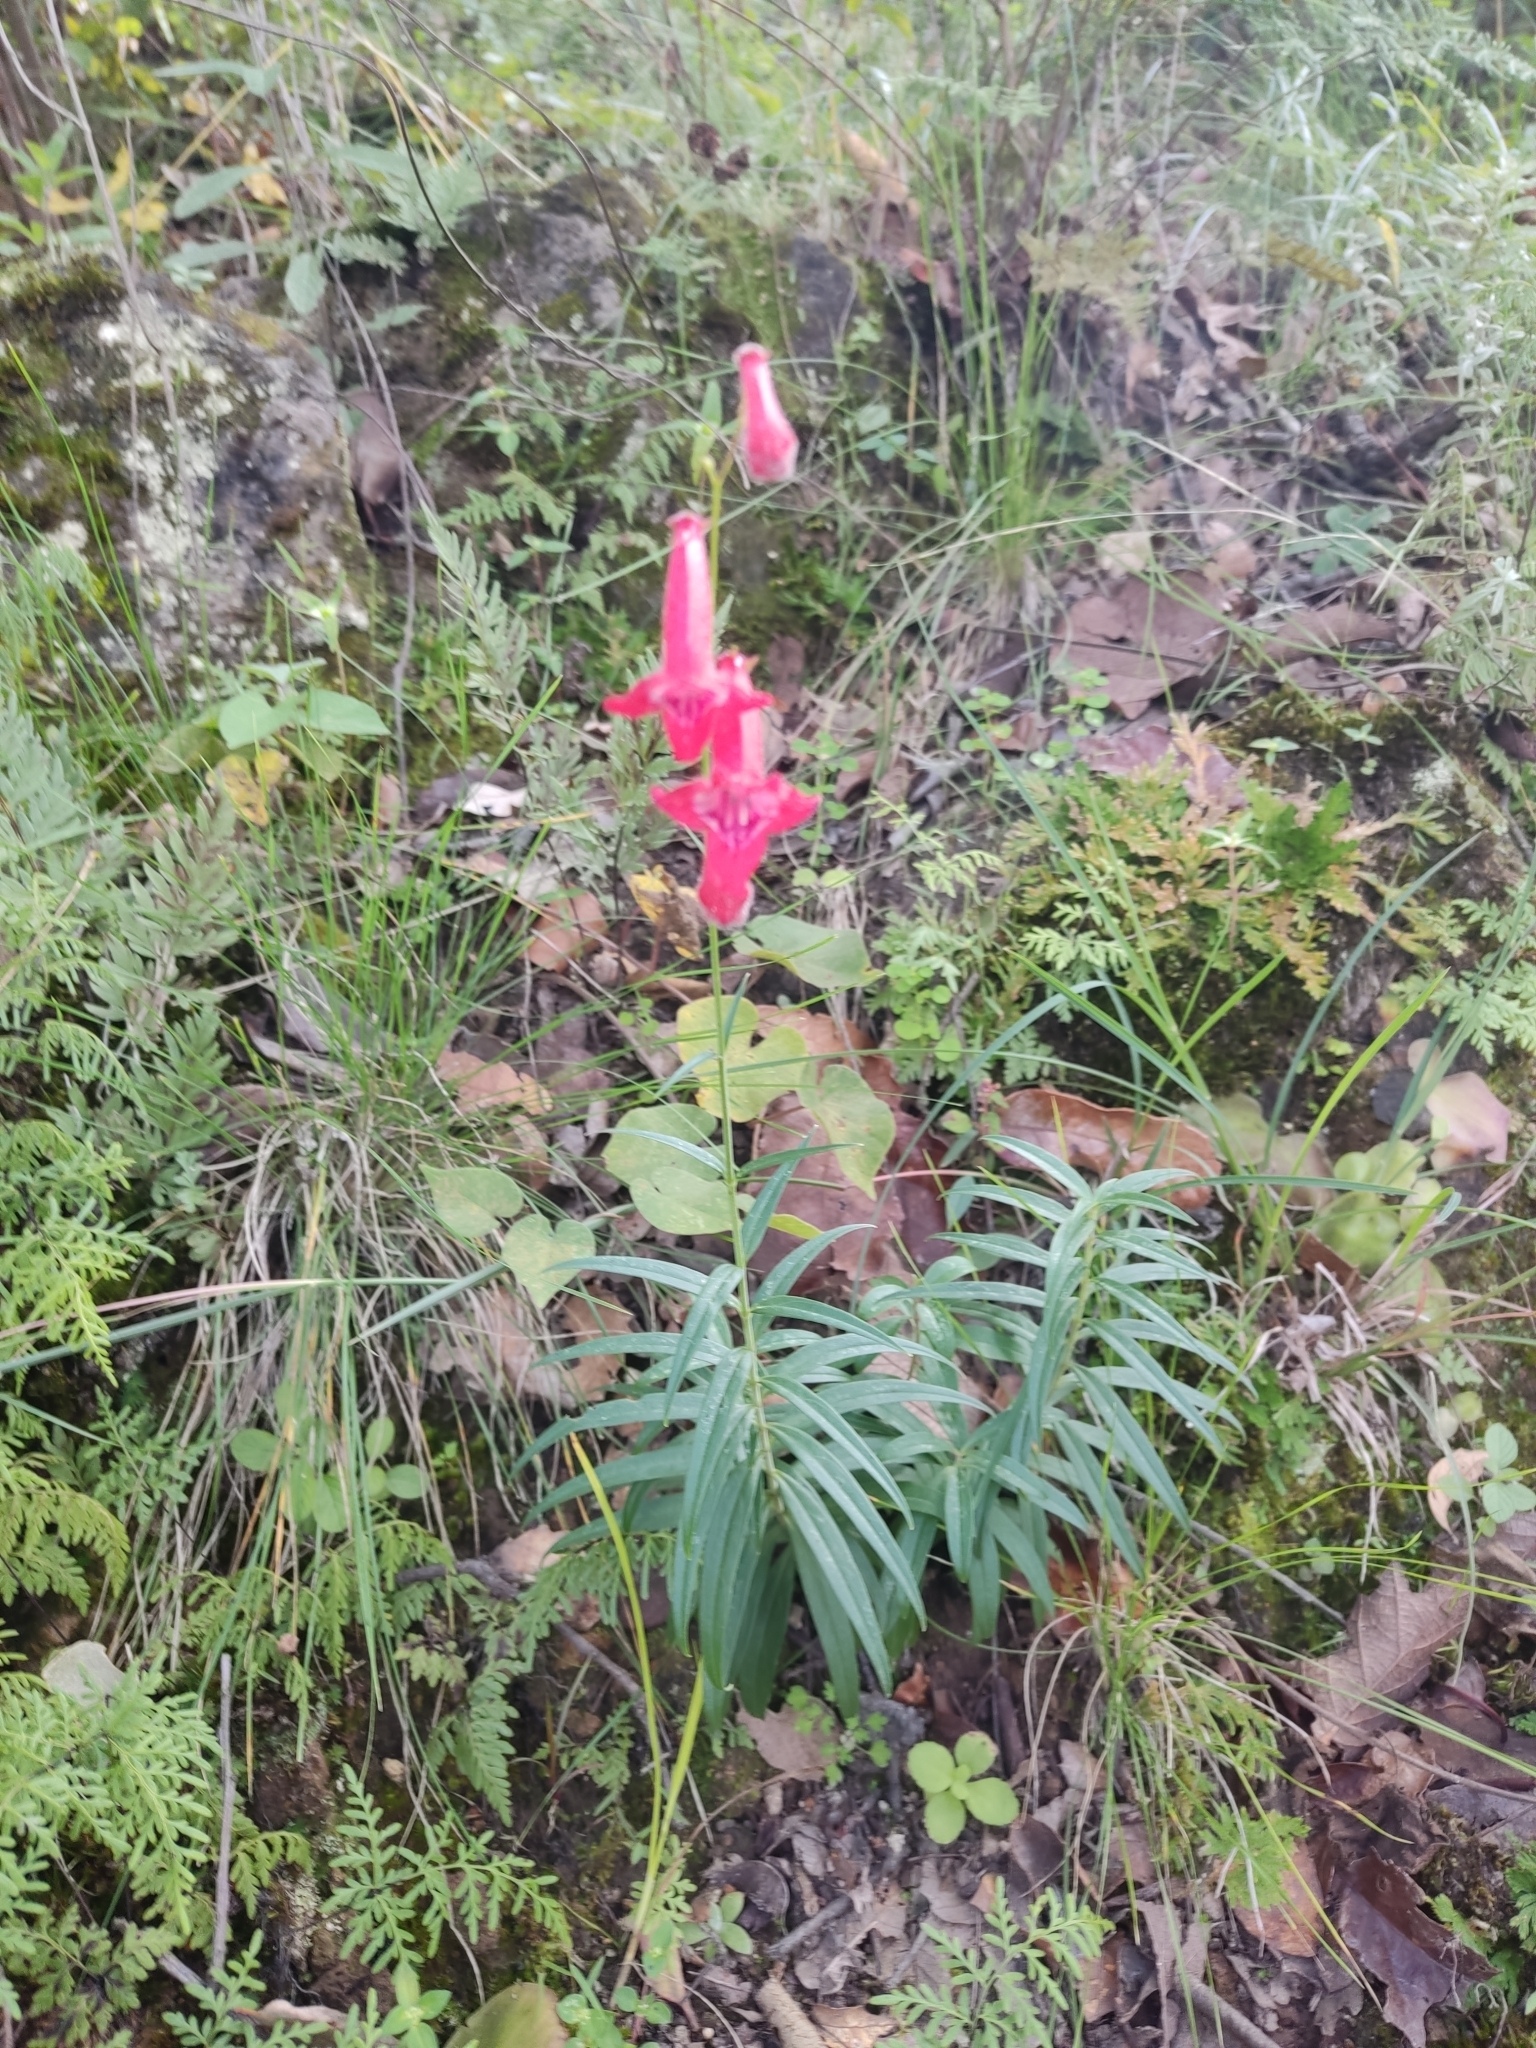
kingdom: Plantae
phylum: Tracheophyta
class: Magnoliopsida
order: Lamiales
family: Plantaginaceae
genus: Penstemon
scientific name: Penstemon miniatus
